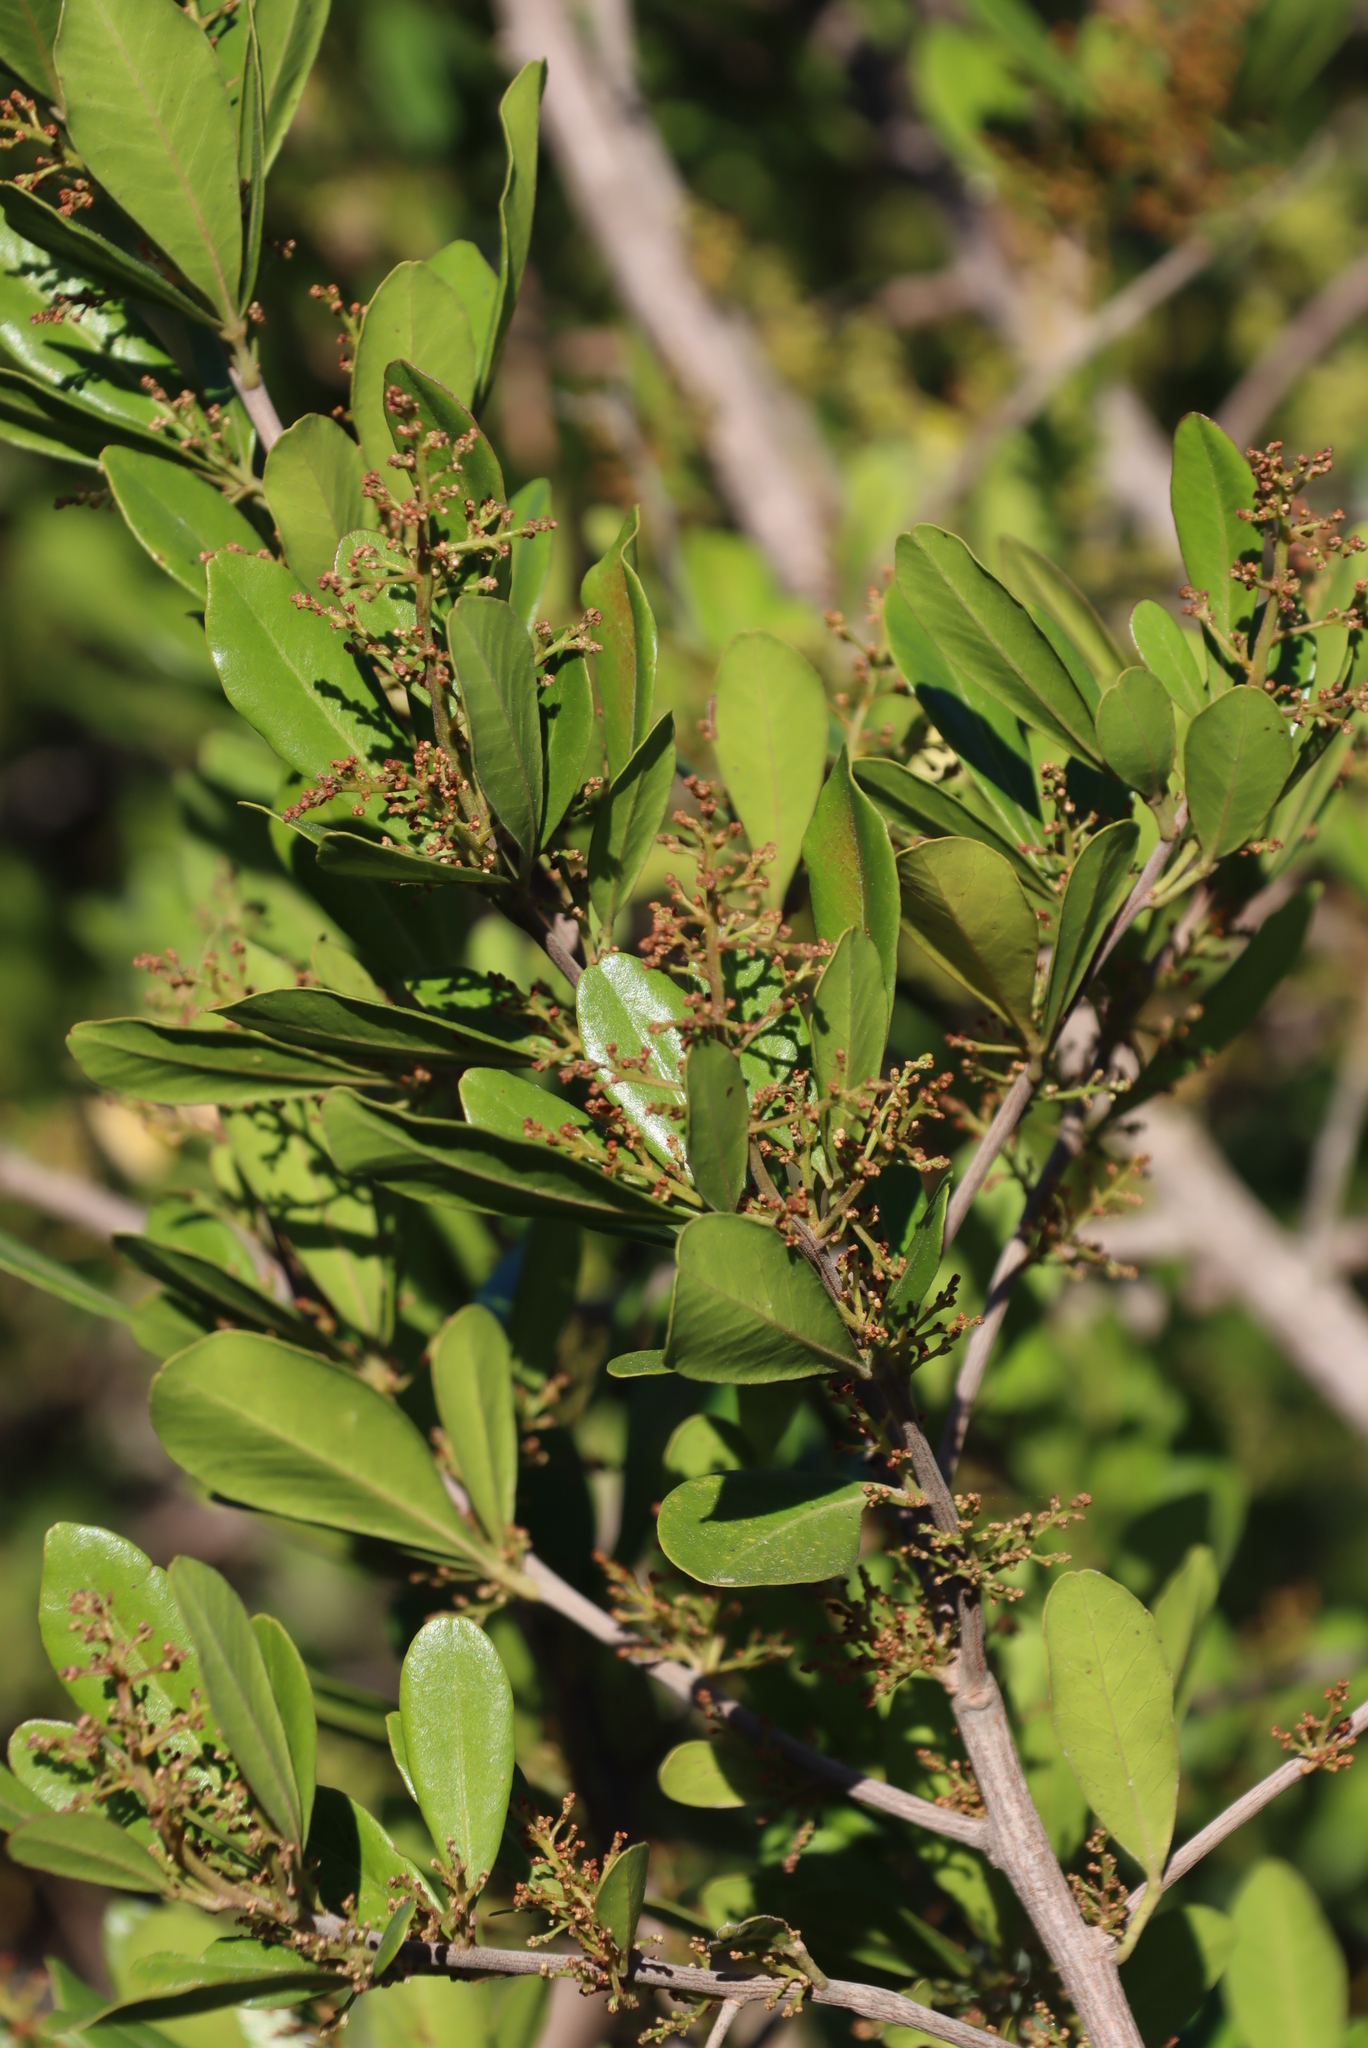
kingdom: Plantae
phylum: Tracheophyta
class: Magnoliopsida
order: Sapindales
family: Anacardiaceae
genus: Searsia
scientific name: Searsia lucida
